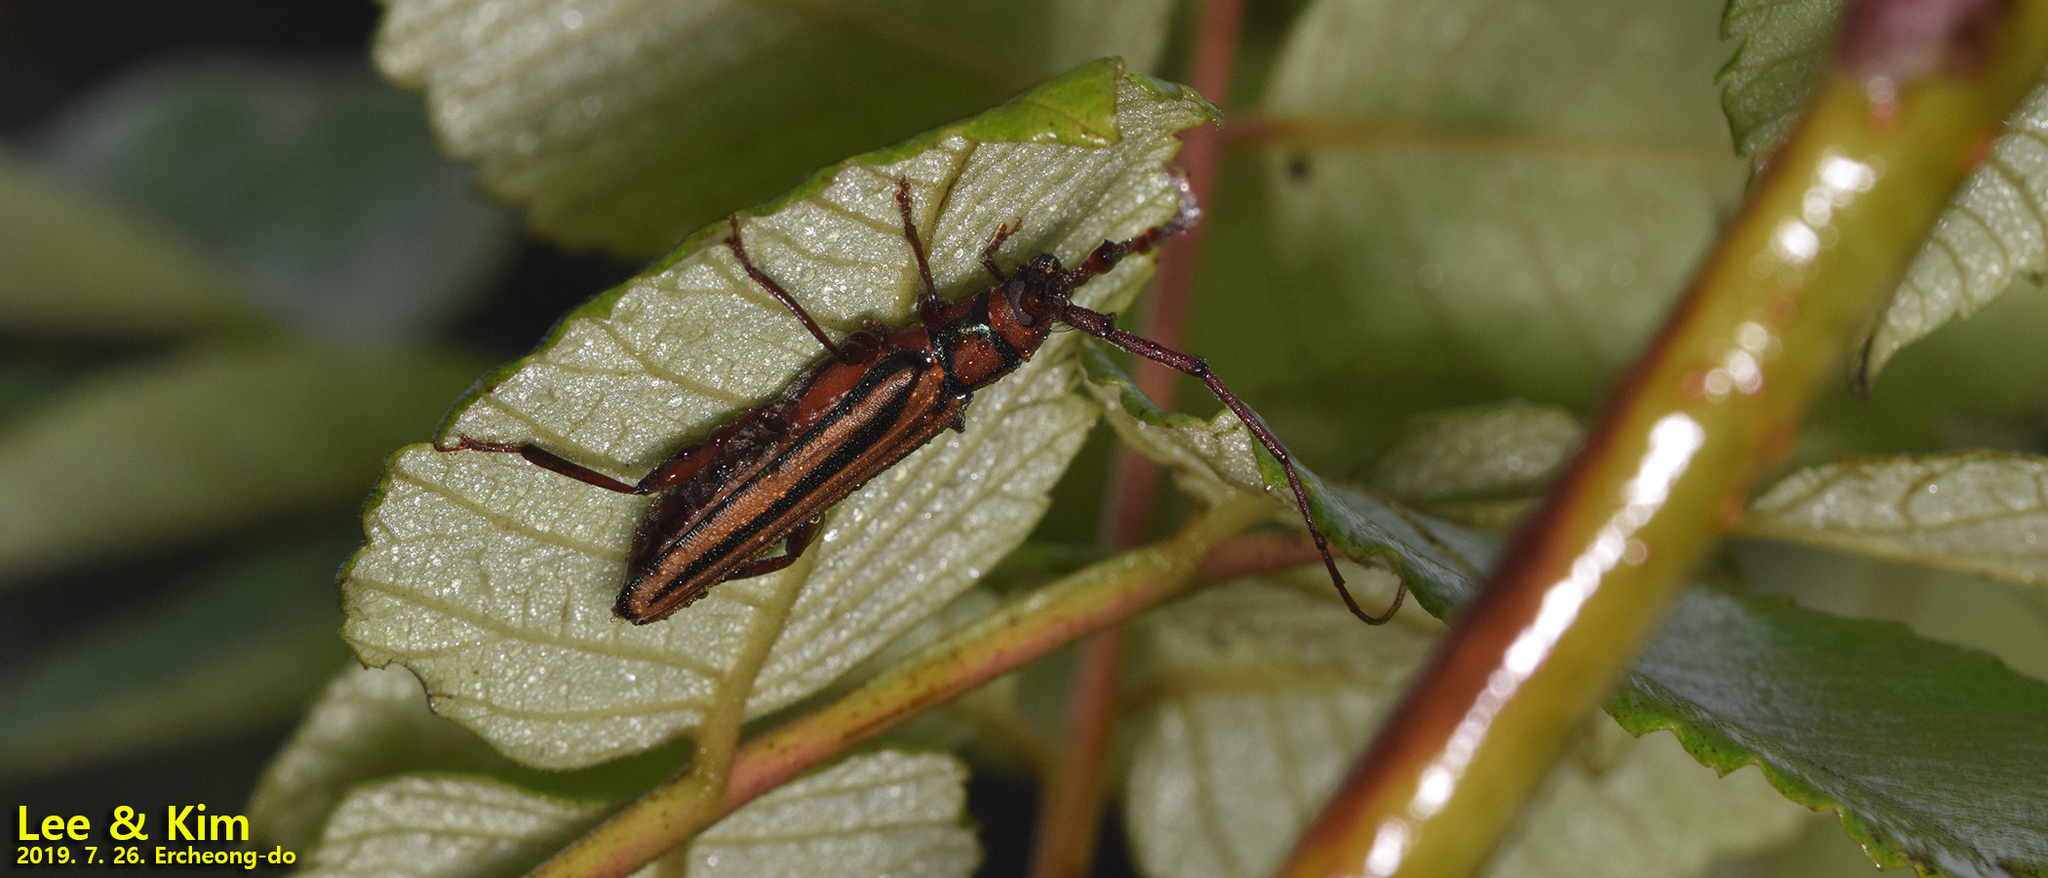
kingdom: Animalia
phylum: Arthropoda
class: Insecta
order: Coleoptera
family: Cerambycidae
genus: Xystrocera
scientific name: Xystrocera globosa
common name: Peach-tree longhorn
